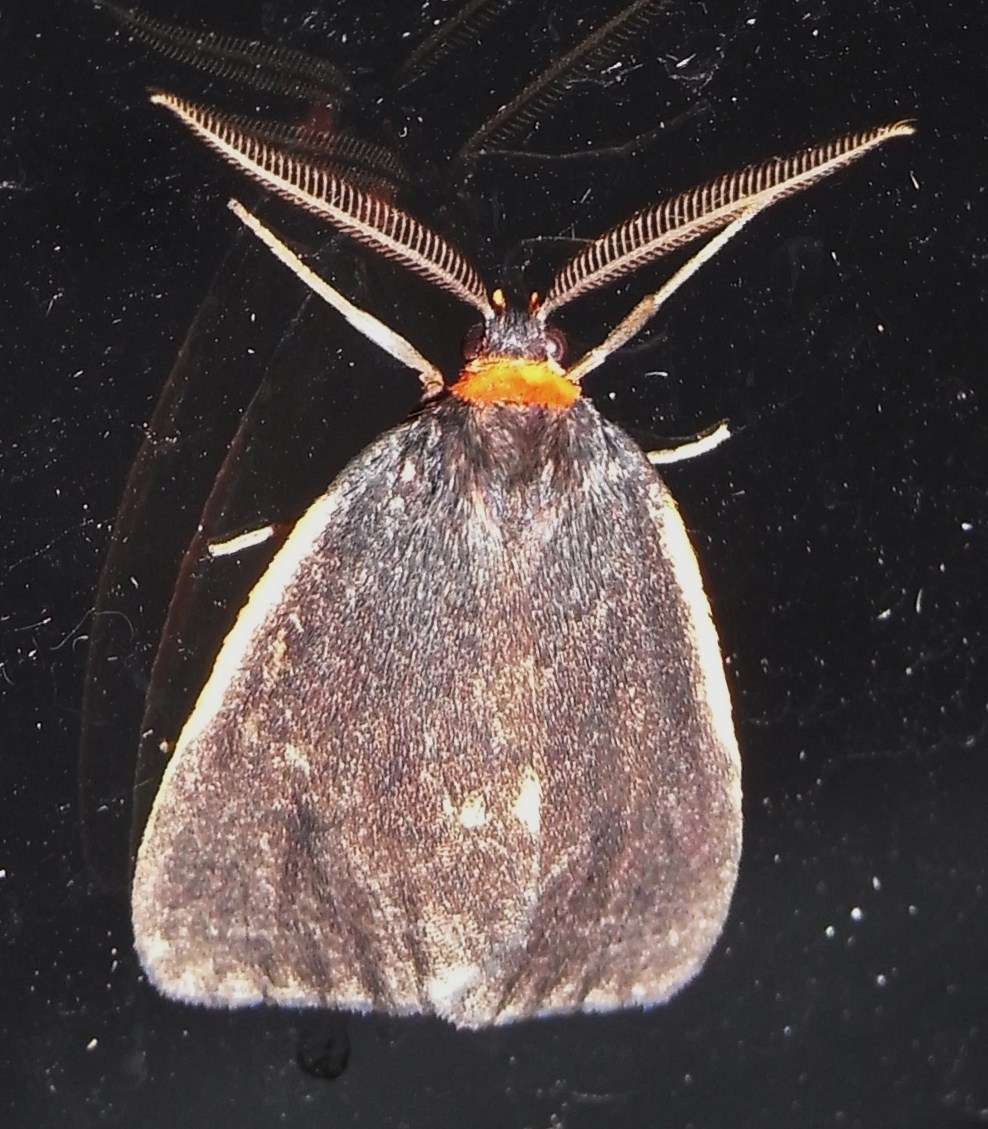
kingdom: Animalia
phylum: Arthropoda
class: Insecta
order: Lepidoptera
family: Erebidae
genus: Castulo
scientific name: Castulo doubledayi
